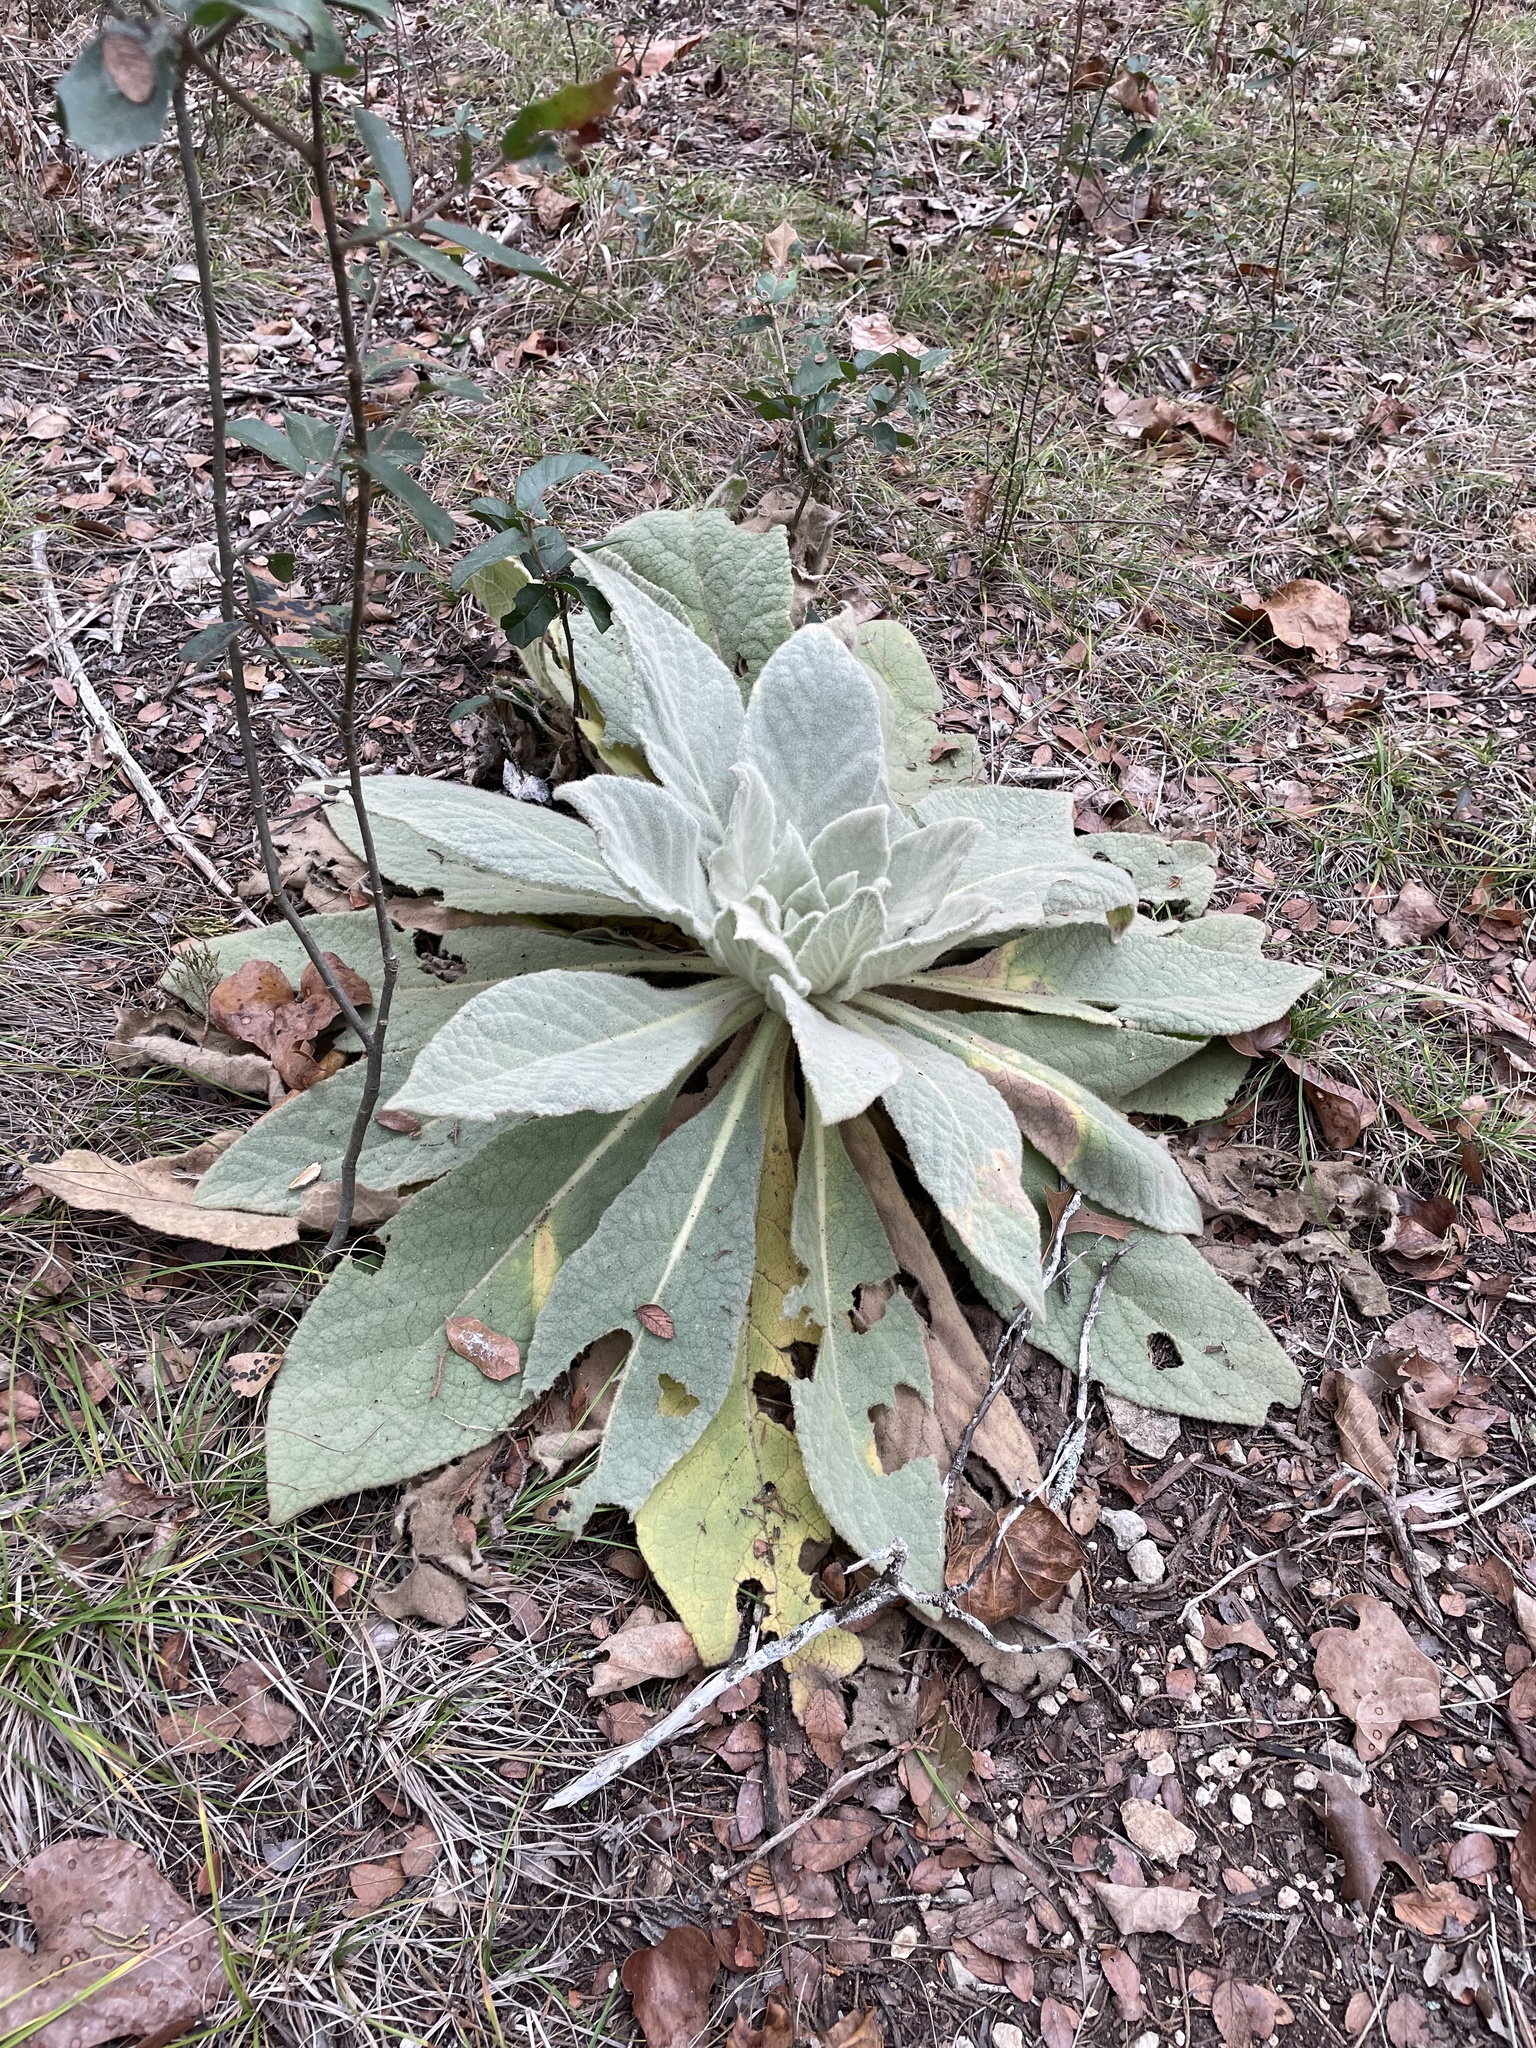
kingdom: Plantae
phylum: Tracheophyta
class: Magnoliopsida
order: Lamiales
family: Scrophulariaceae
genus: Verbascum
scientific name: Verbascum thapsus
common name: Common mullein
